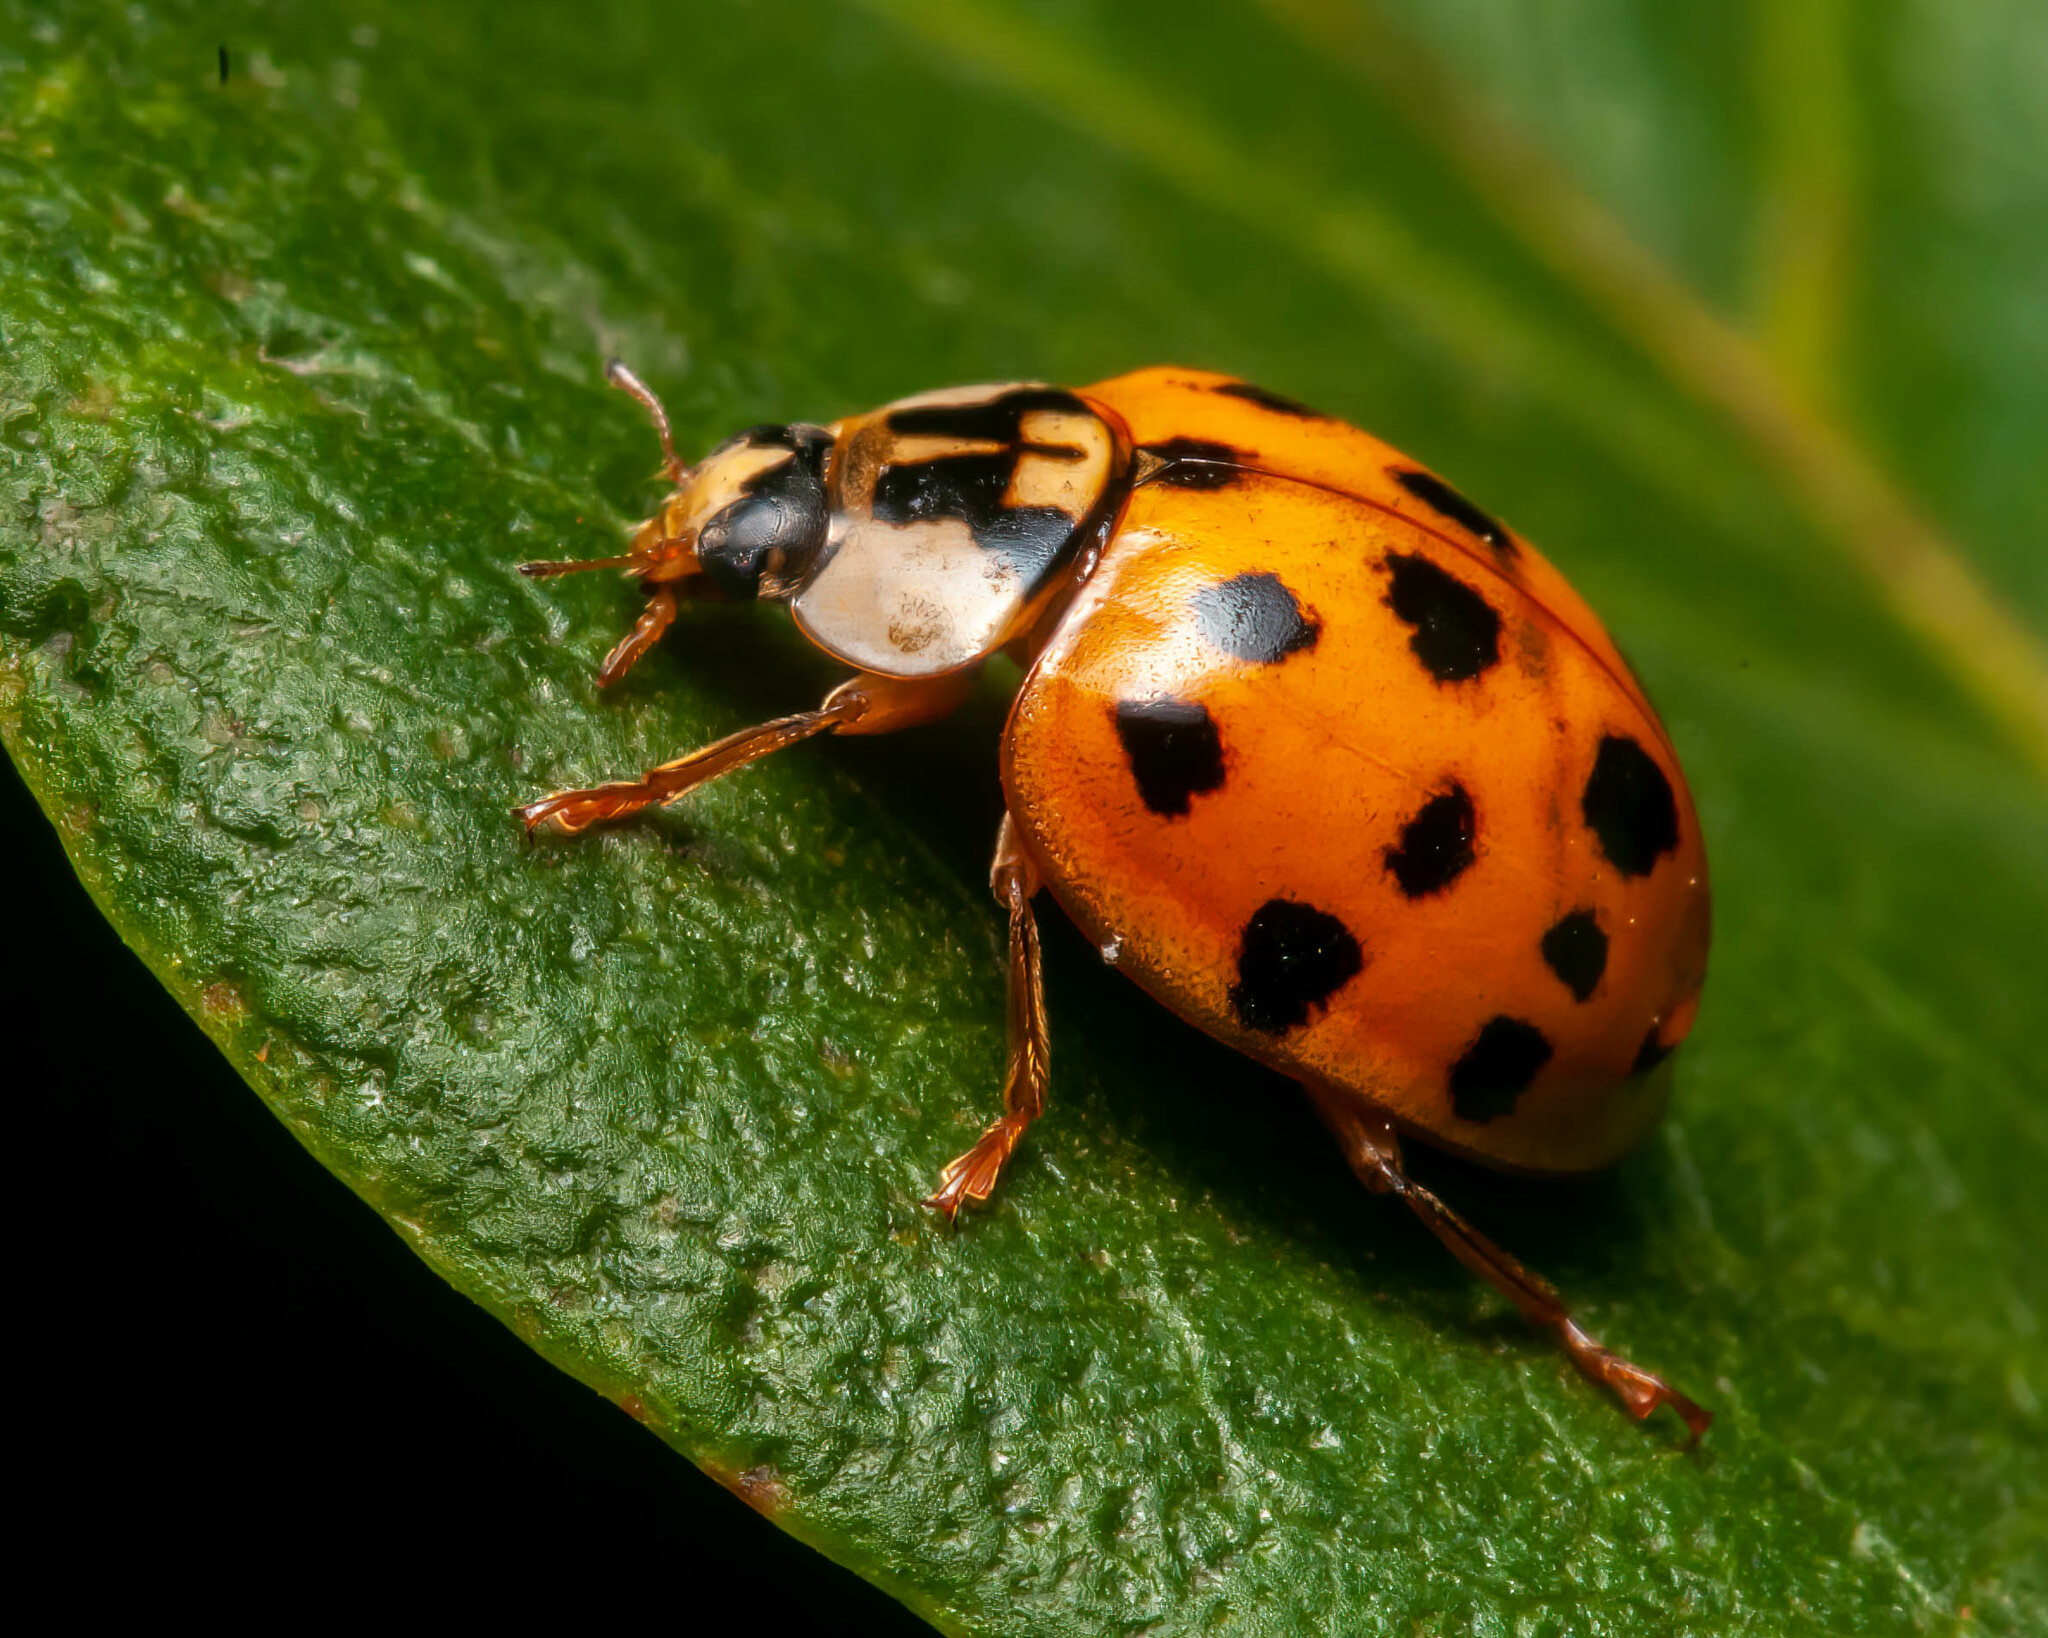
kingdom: Animalia
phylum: Arthropoda
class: Insecta
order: Coleoptera
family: Coccinellidae
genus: Harmonia
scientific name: Harmonia axyridis
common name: Harlequin ladybird
